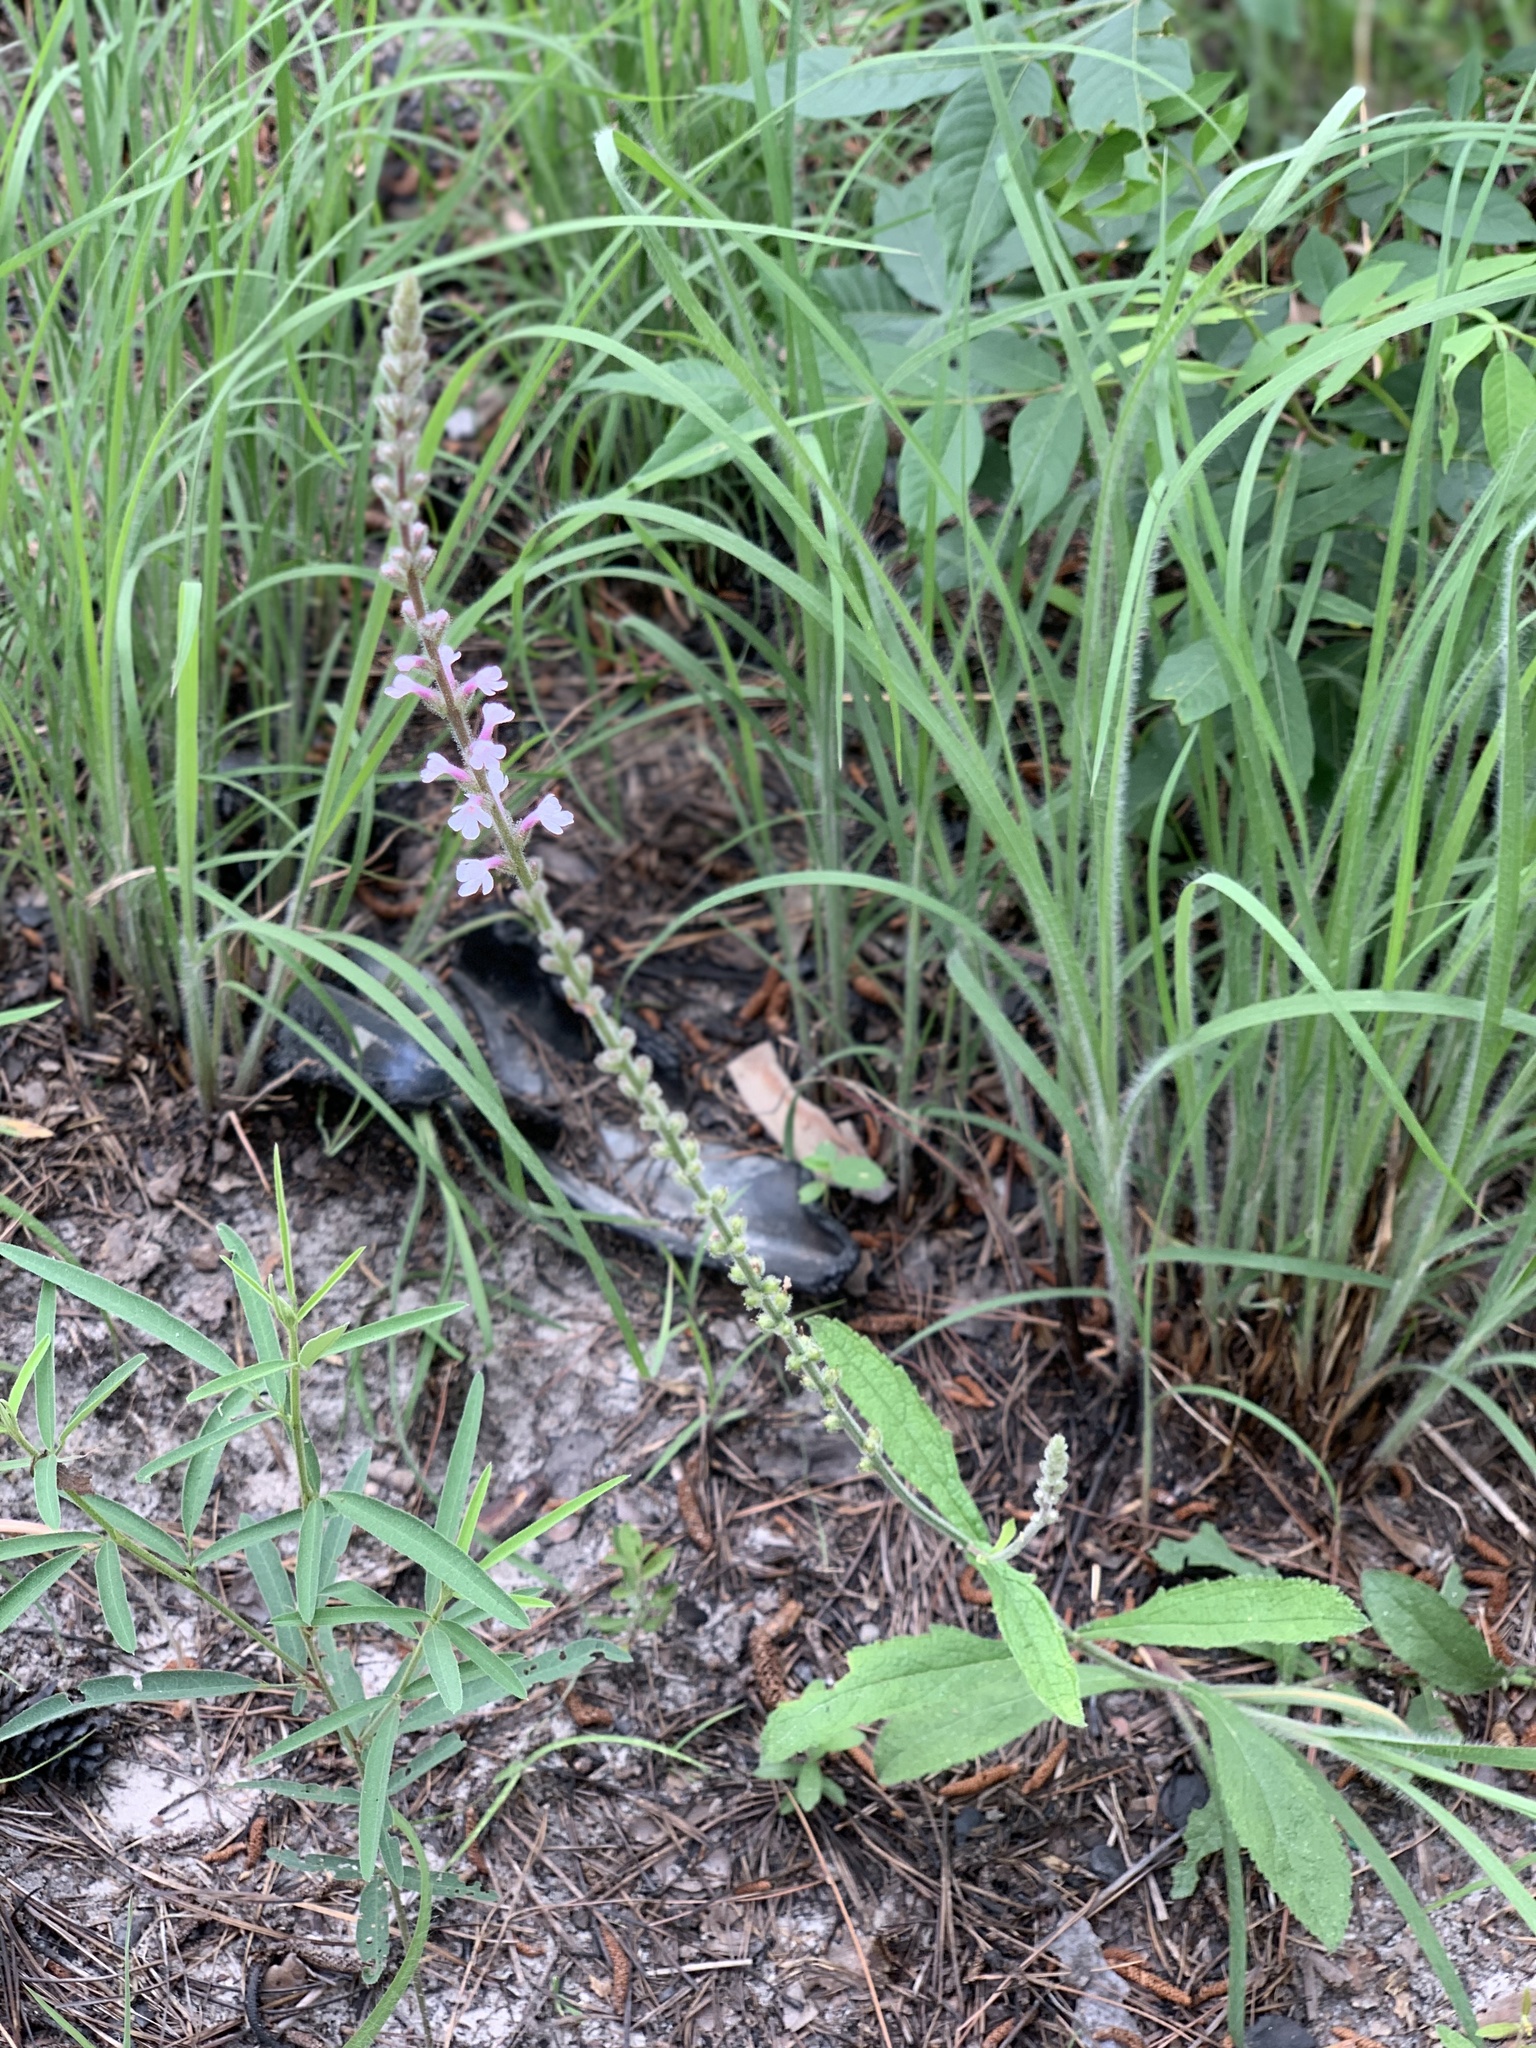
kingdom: Plantae
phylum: Tracheophyta
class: Magnoliopsida
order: Lamiales
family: Verbenaceae
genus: Verbena
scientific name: Verbena carnea
